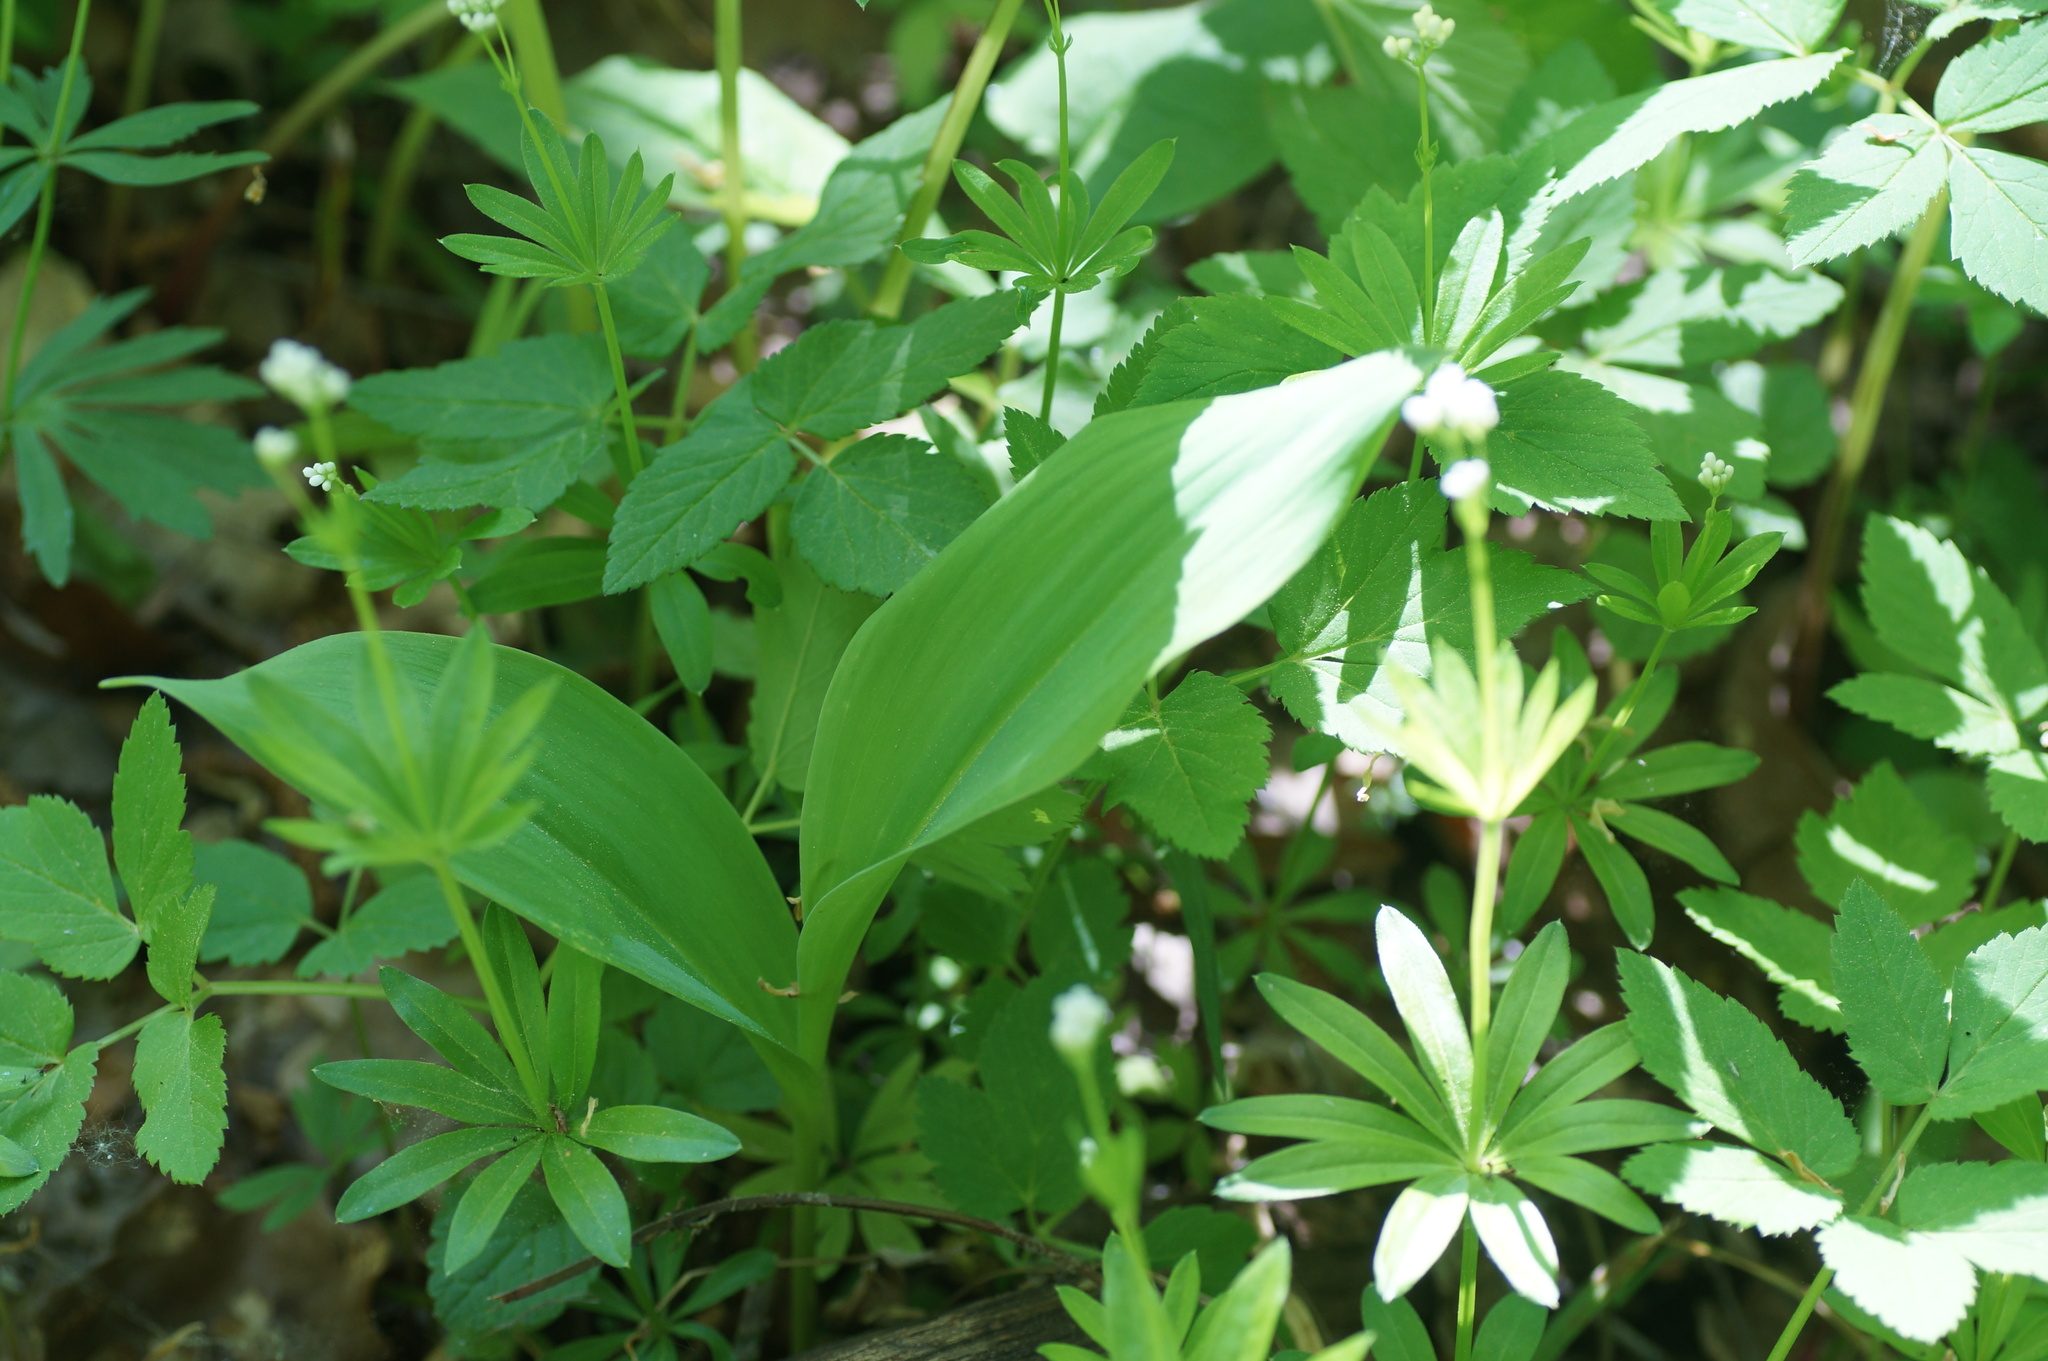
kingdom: Plantae
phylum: Tracheophyta
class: Liliopsida
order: Asparagales
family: Asparagaceae
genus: Convallaria
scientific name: Convallaria majalis
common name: Lily-of-the-valley
